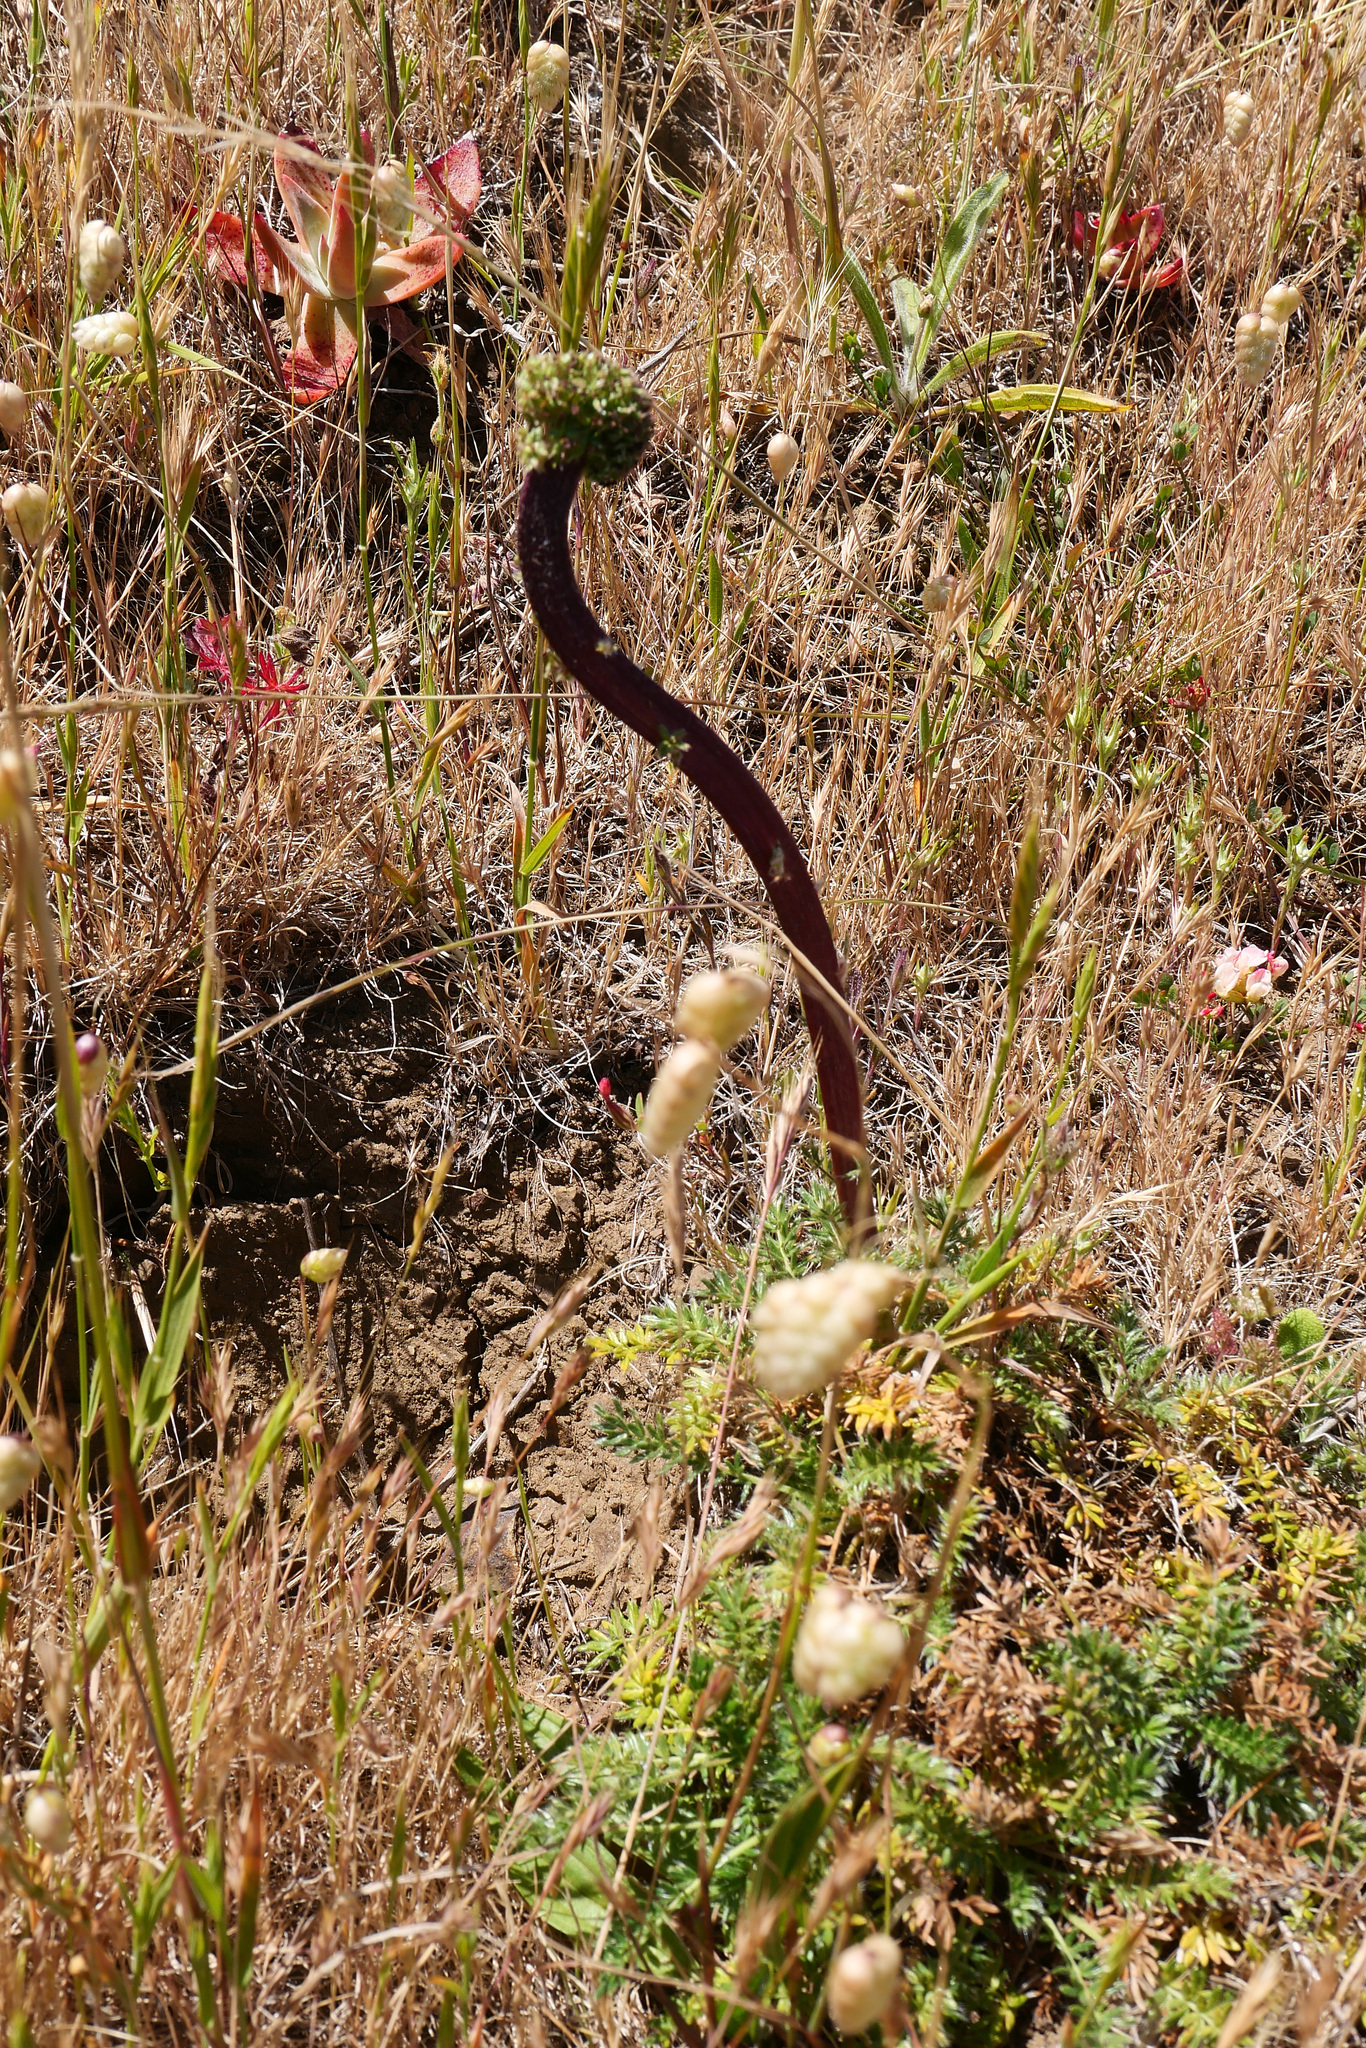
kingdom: Plantae
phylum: Tracheophyta
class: Magnoliopsida
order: Rosales
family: Rosaceae
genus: Acaena
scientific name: Acaena pinnatifida
